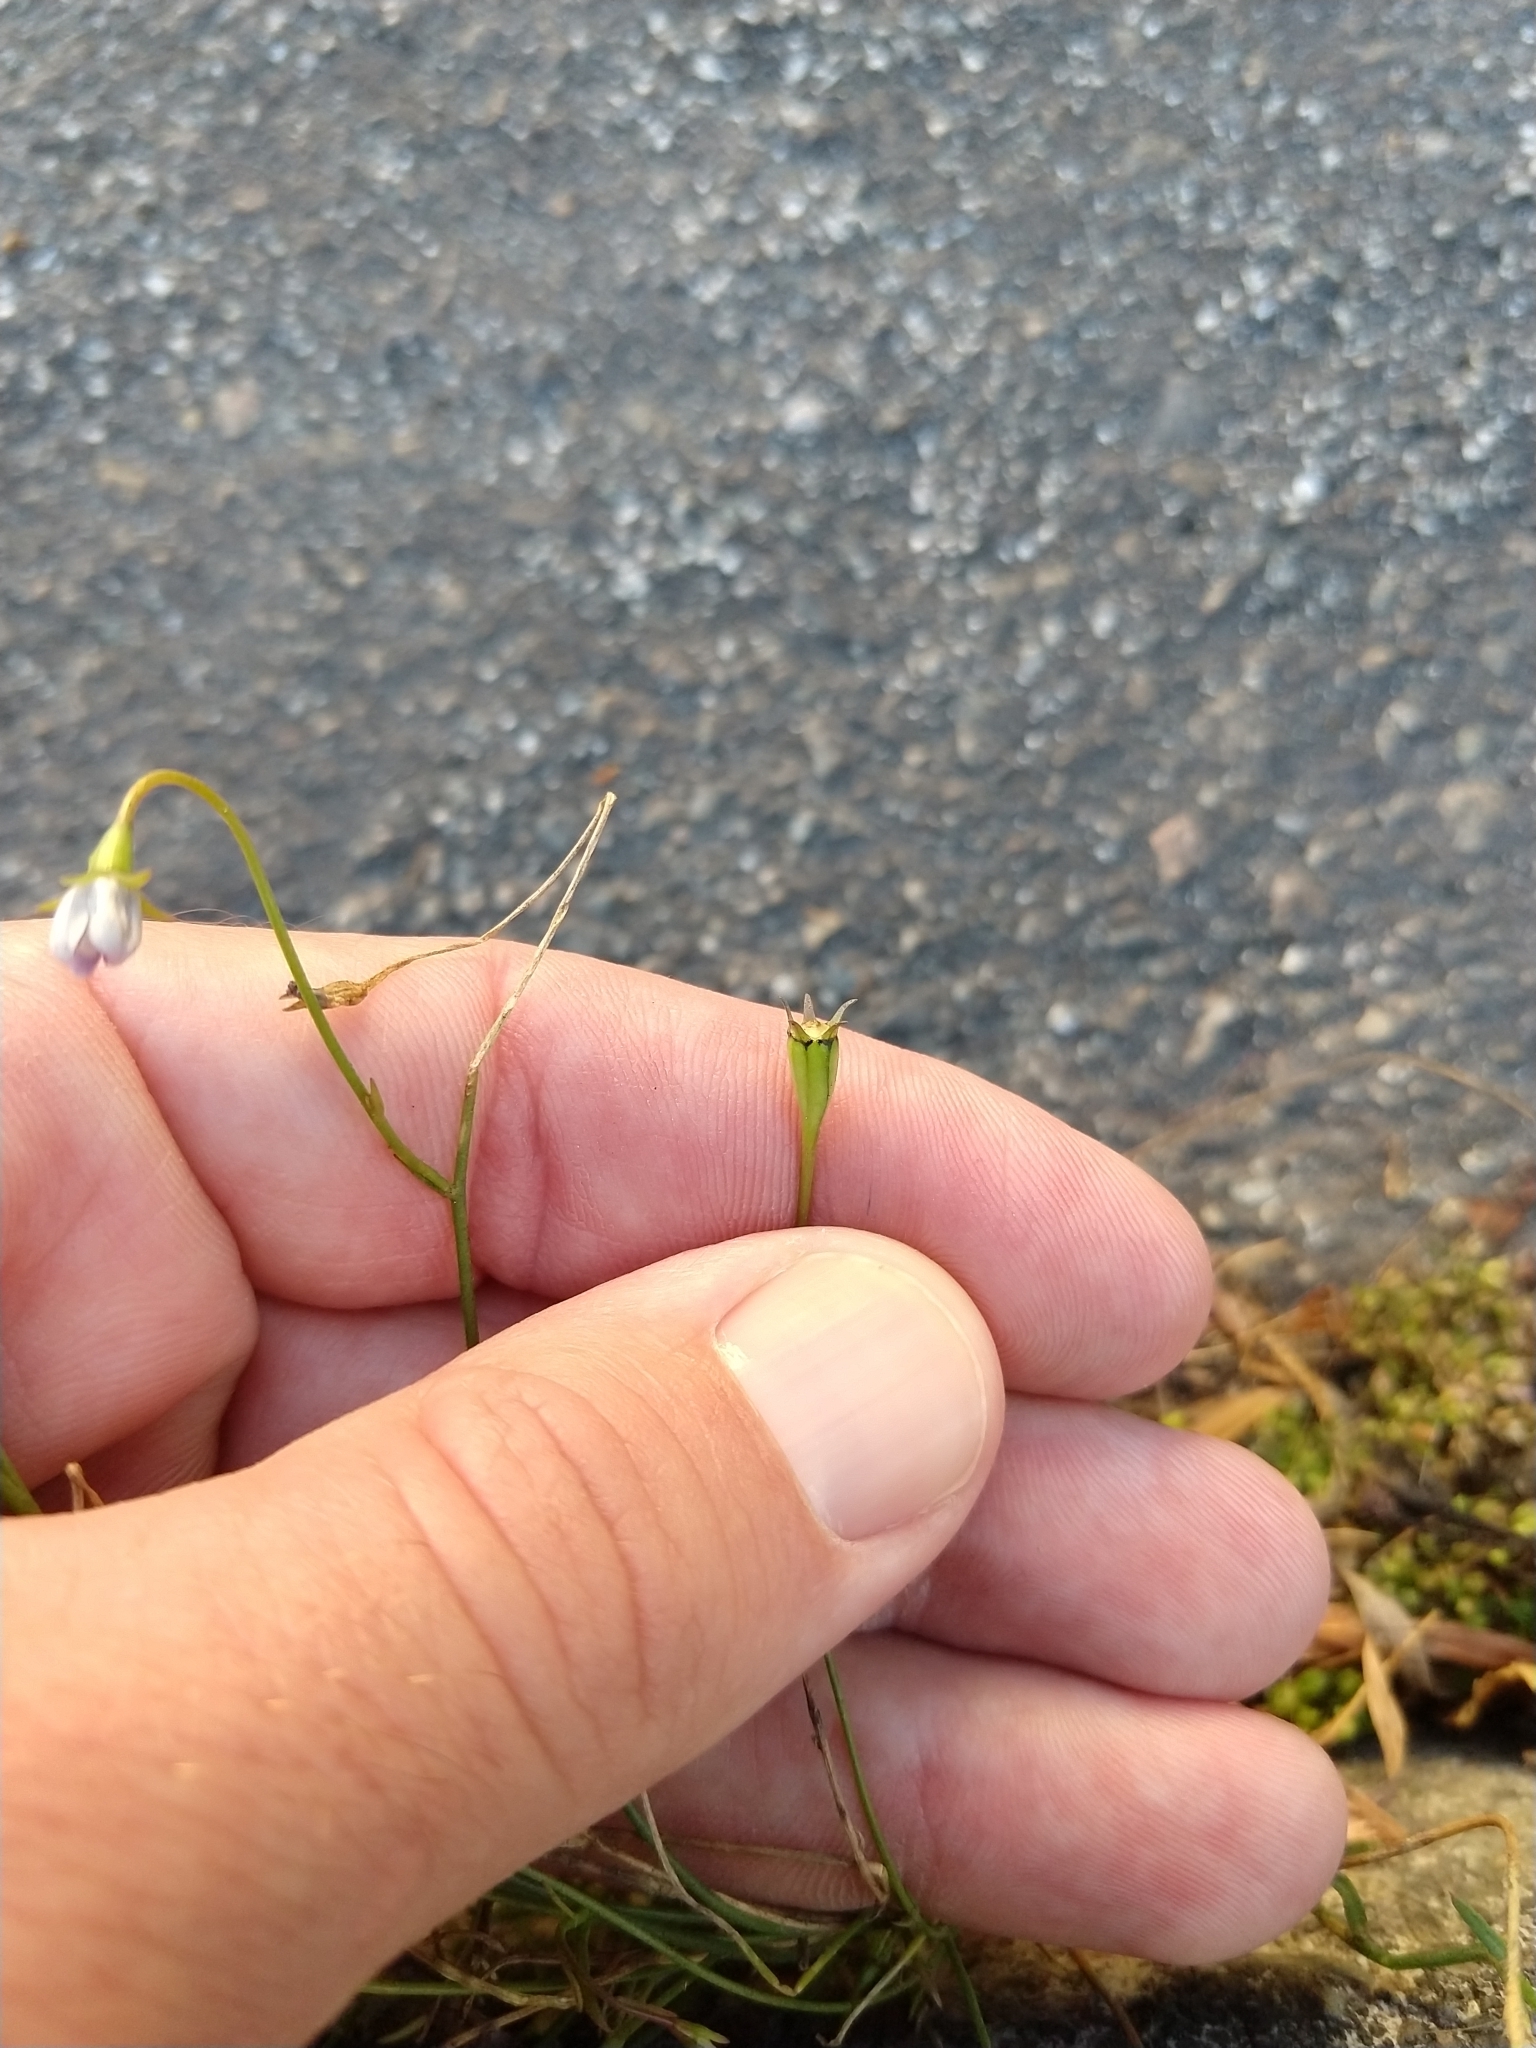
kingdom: Plantae
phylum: Tracheophyta
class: Magnoliopsida
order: Asterales
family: Campanulaceae
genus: Wahlenbergia
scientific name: Wahlenbergia marginata
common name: Southern rockbell
